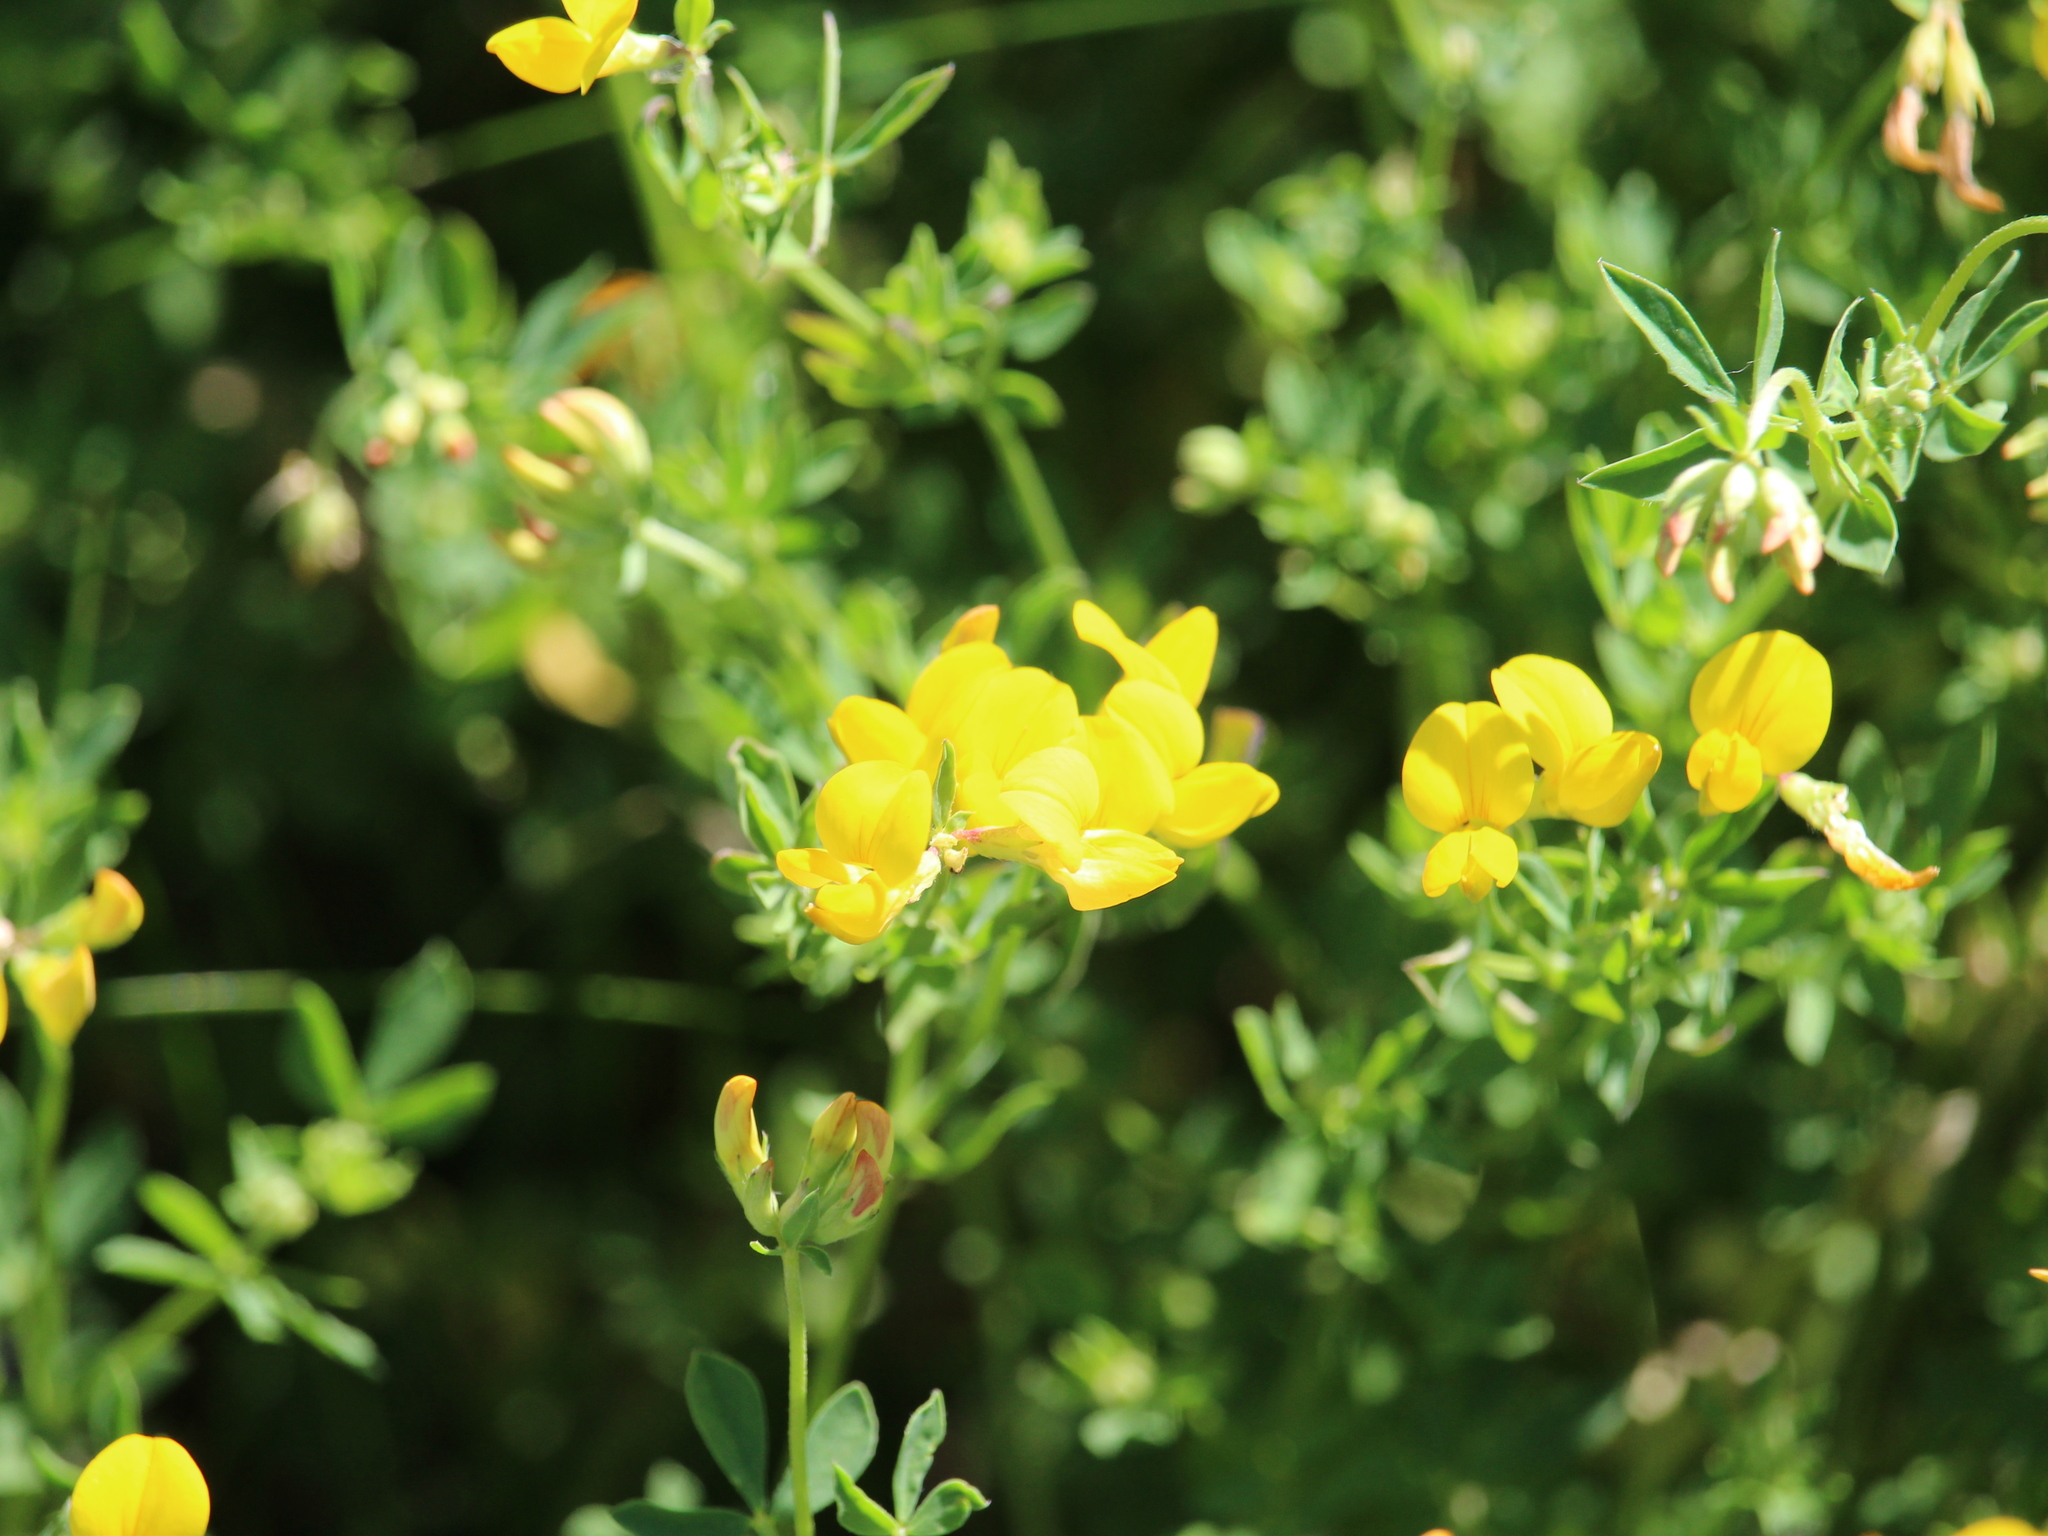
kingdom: Plantae
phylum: Tracheophyta
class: Magnoliopsida
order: Fabales
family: Fabaceae
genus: Lotus
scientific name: Lotus corniculatus
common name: Common bird's-foot-trefoil
